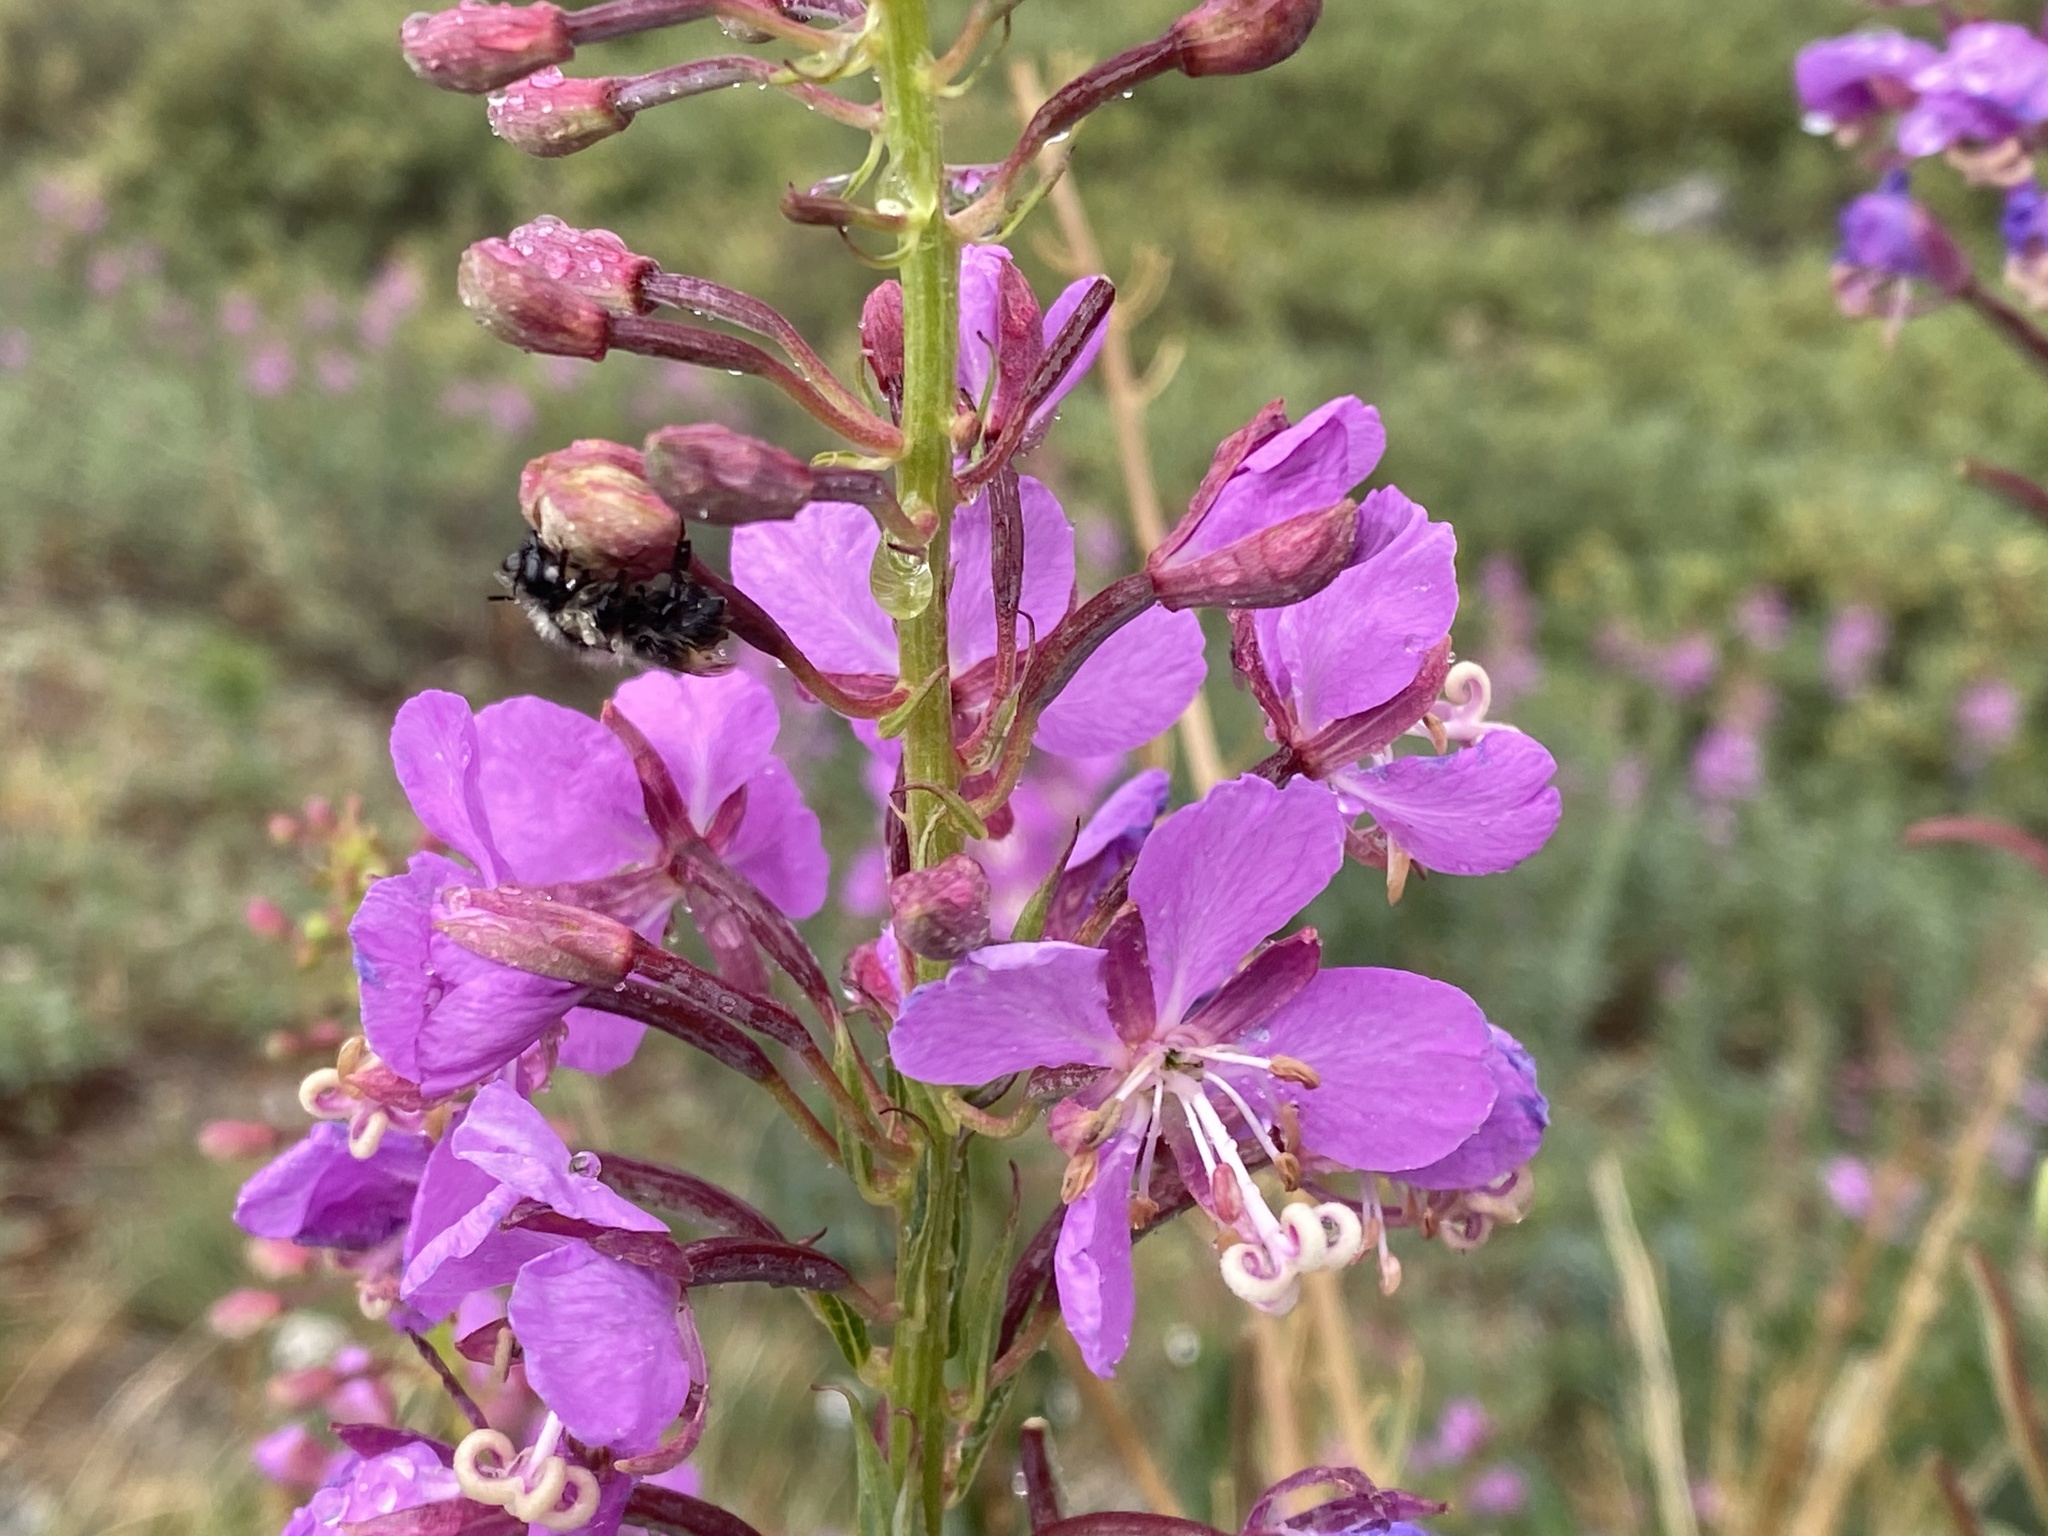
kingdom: Plantae
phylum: Tracheophyta
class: Magnoliopsida
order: Myrtales
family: Onagraceae
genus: Chamaenerion
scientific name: Chamaenerion angustifolium
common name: Fireweed
